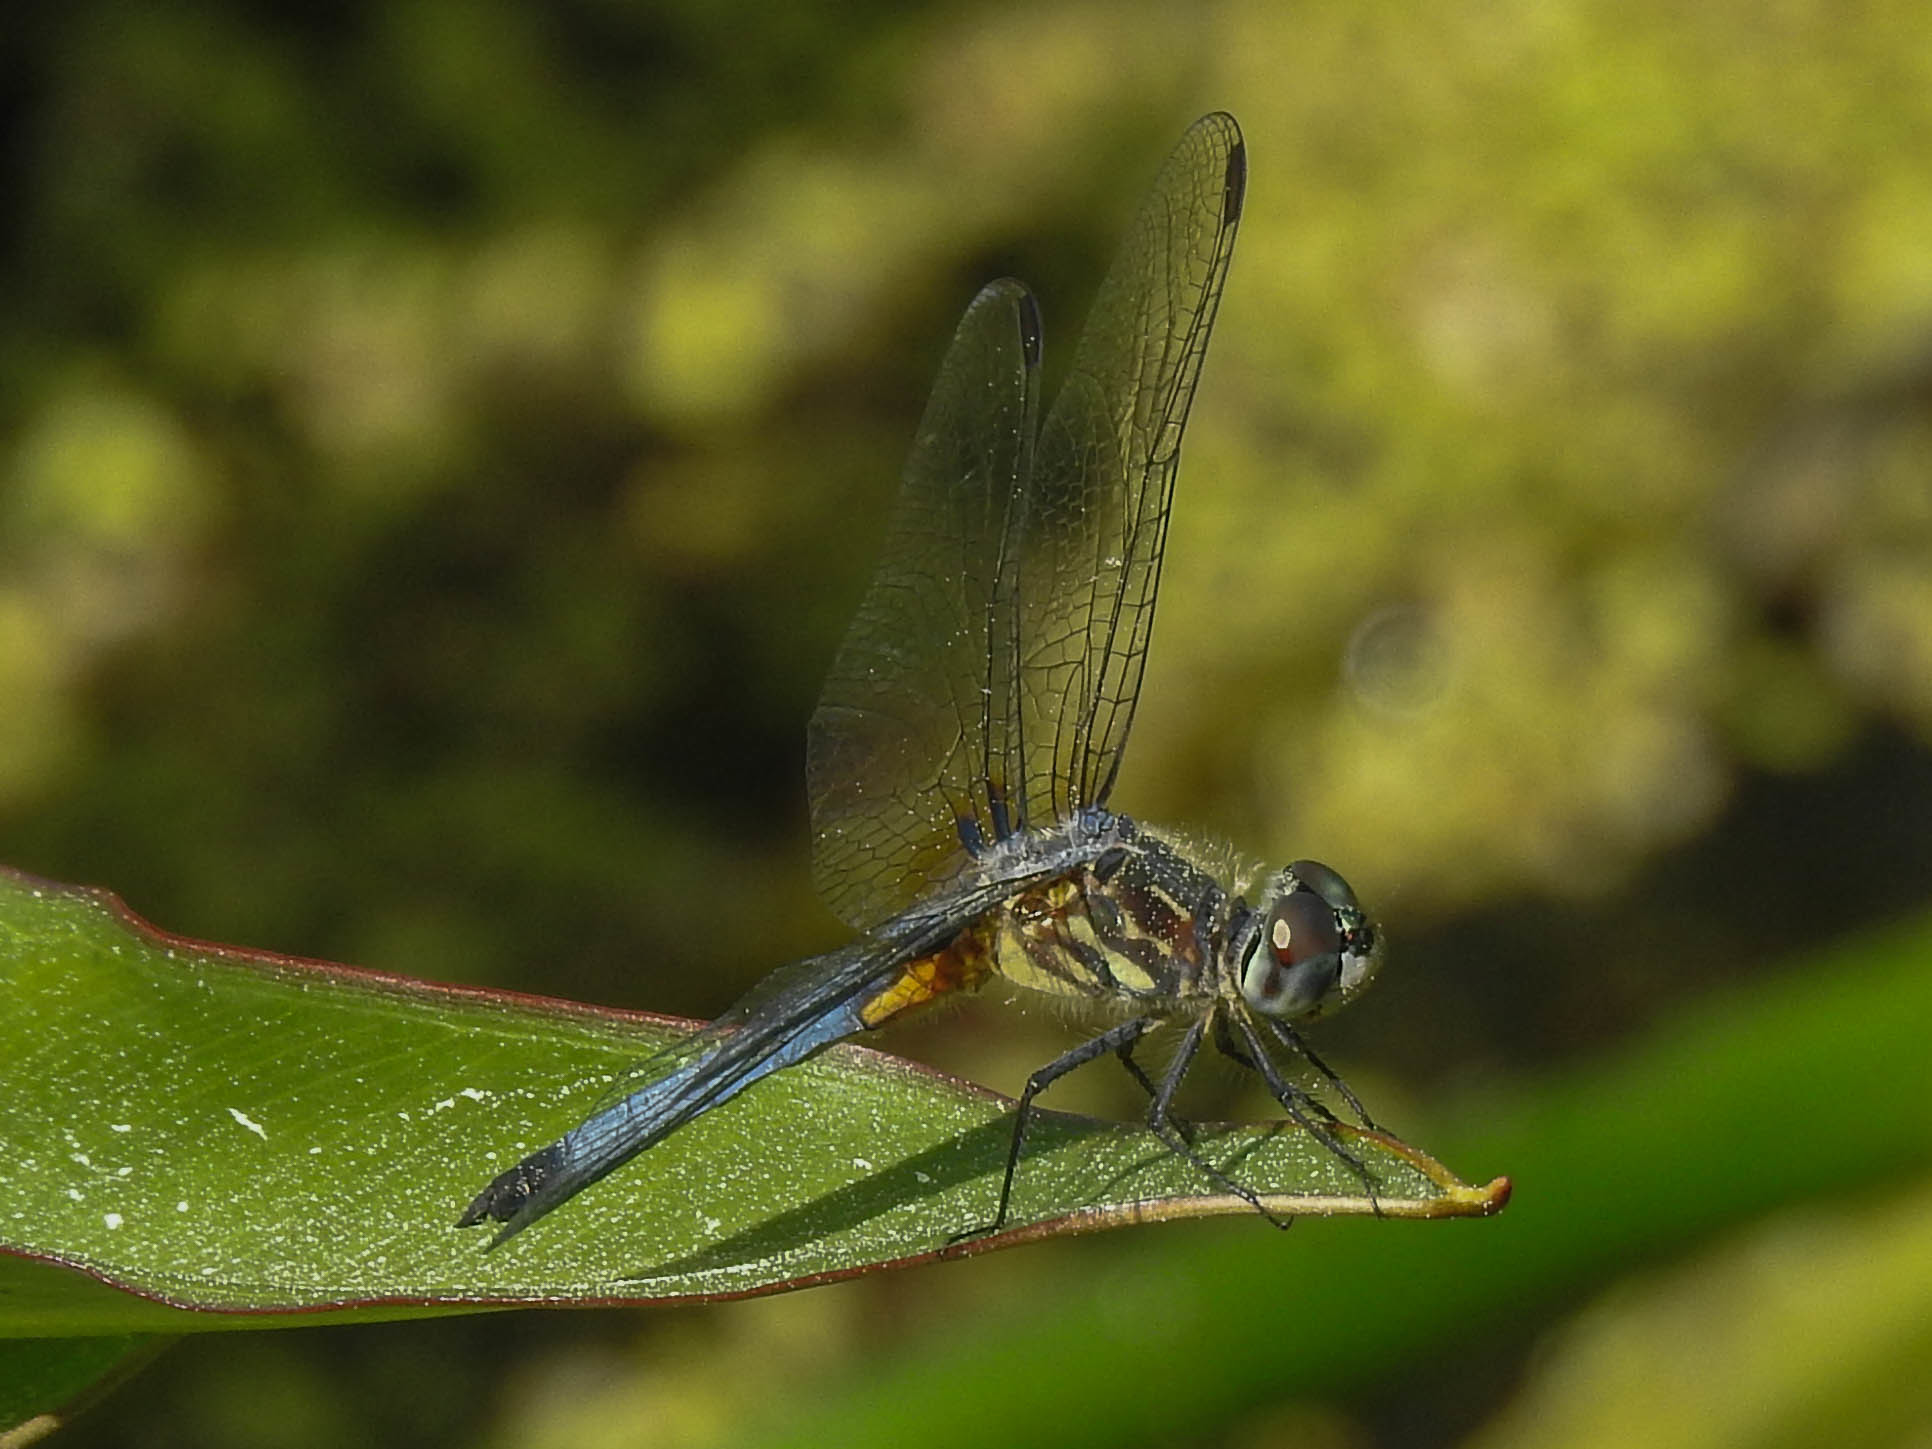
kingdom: Animalia
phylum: Arthropoda
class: Insecta
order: Odonata
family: Libellulidae
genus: Pachydiplax
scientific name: Pachydiplax longipennis
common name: Blue dasher
